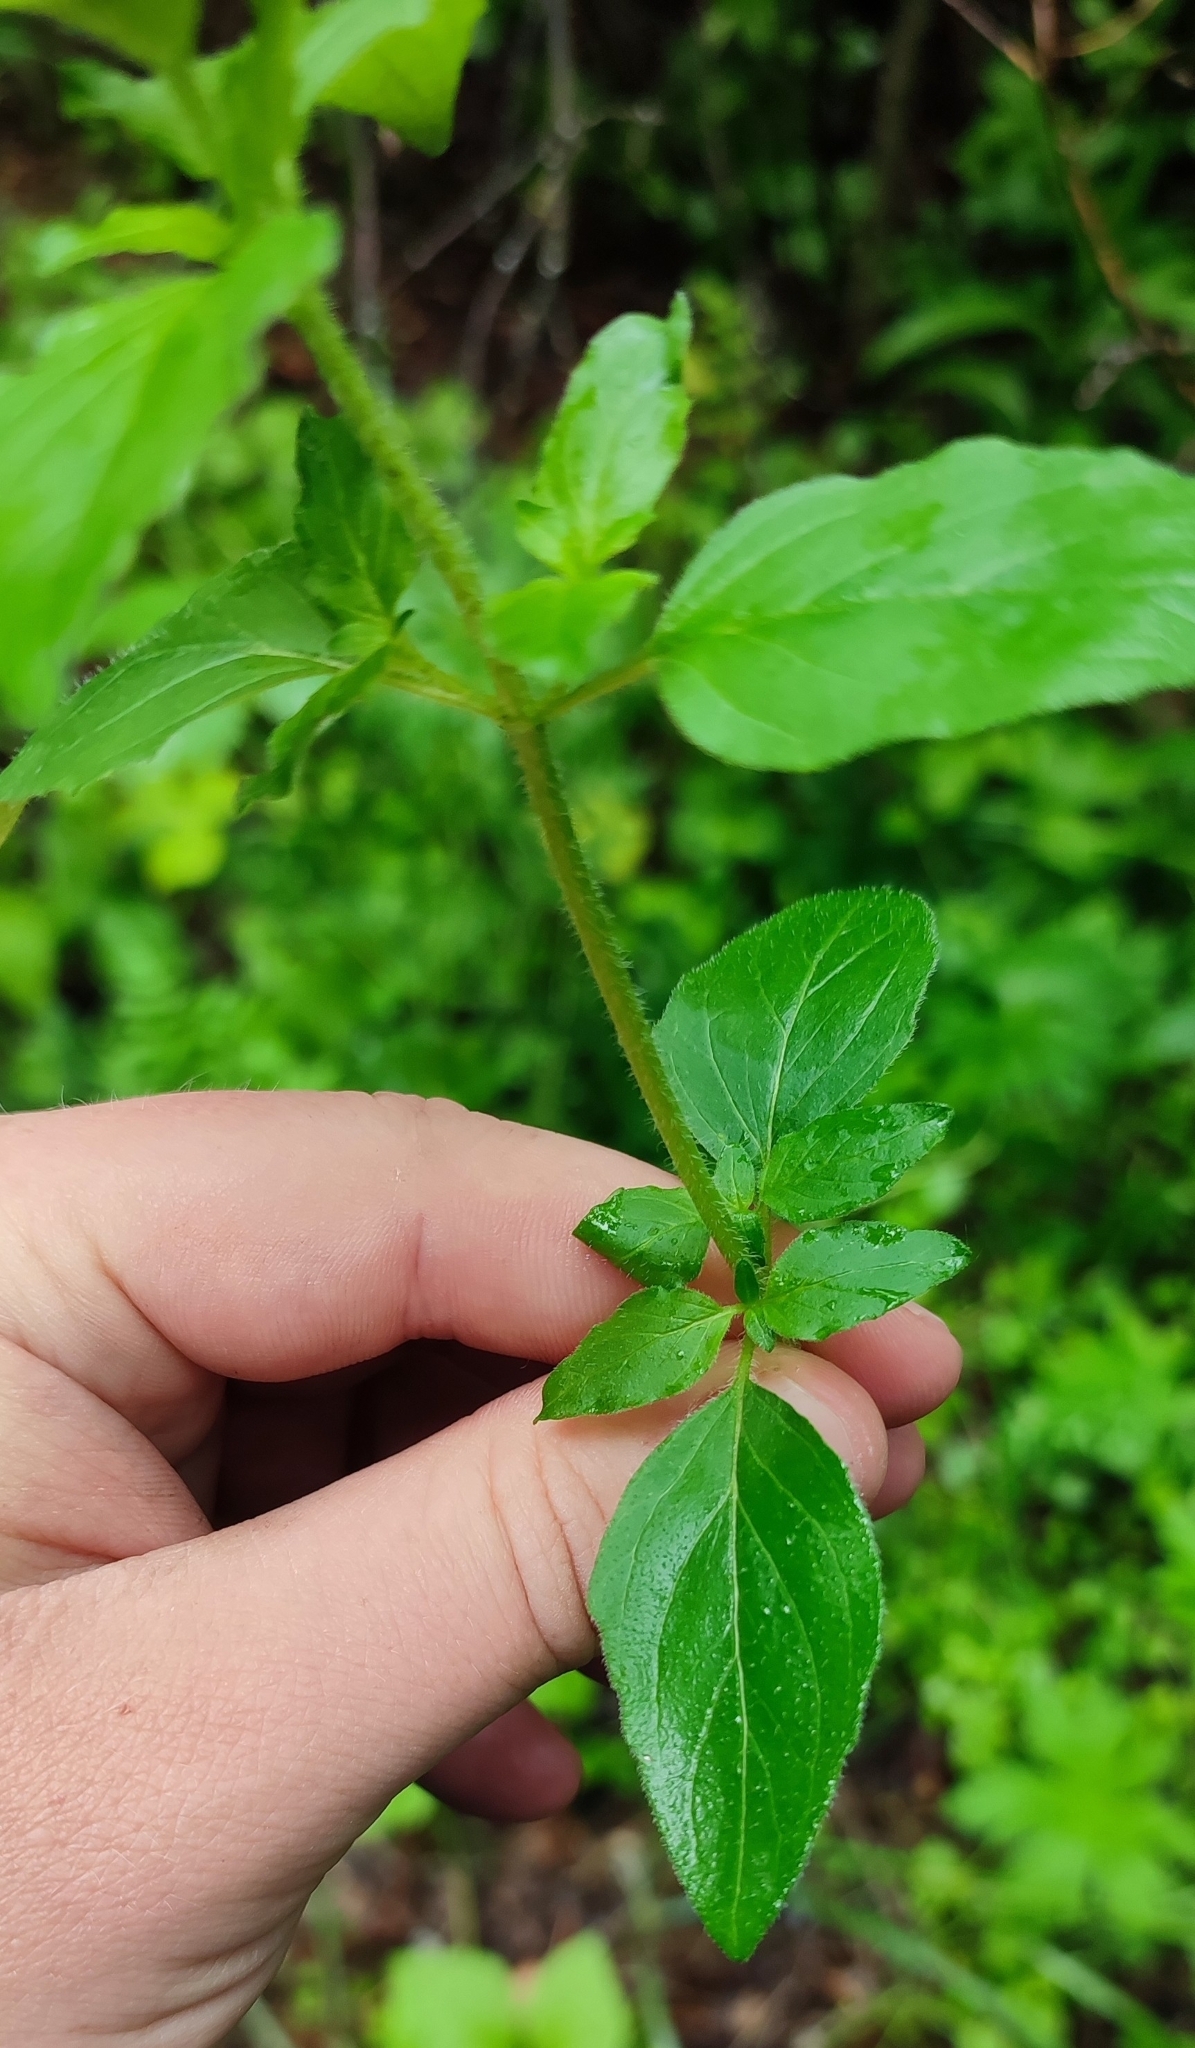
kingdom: Plantae
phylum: Tracheophyta
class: Magnoliopsida
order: Lamiales
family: Lamiaceae
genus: Origanum
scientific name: Origanum vulgare
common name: Wild marjoram
